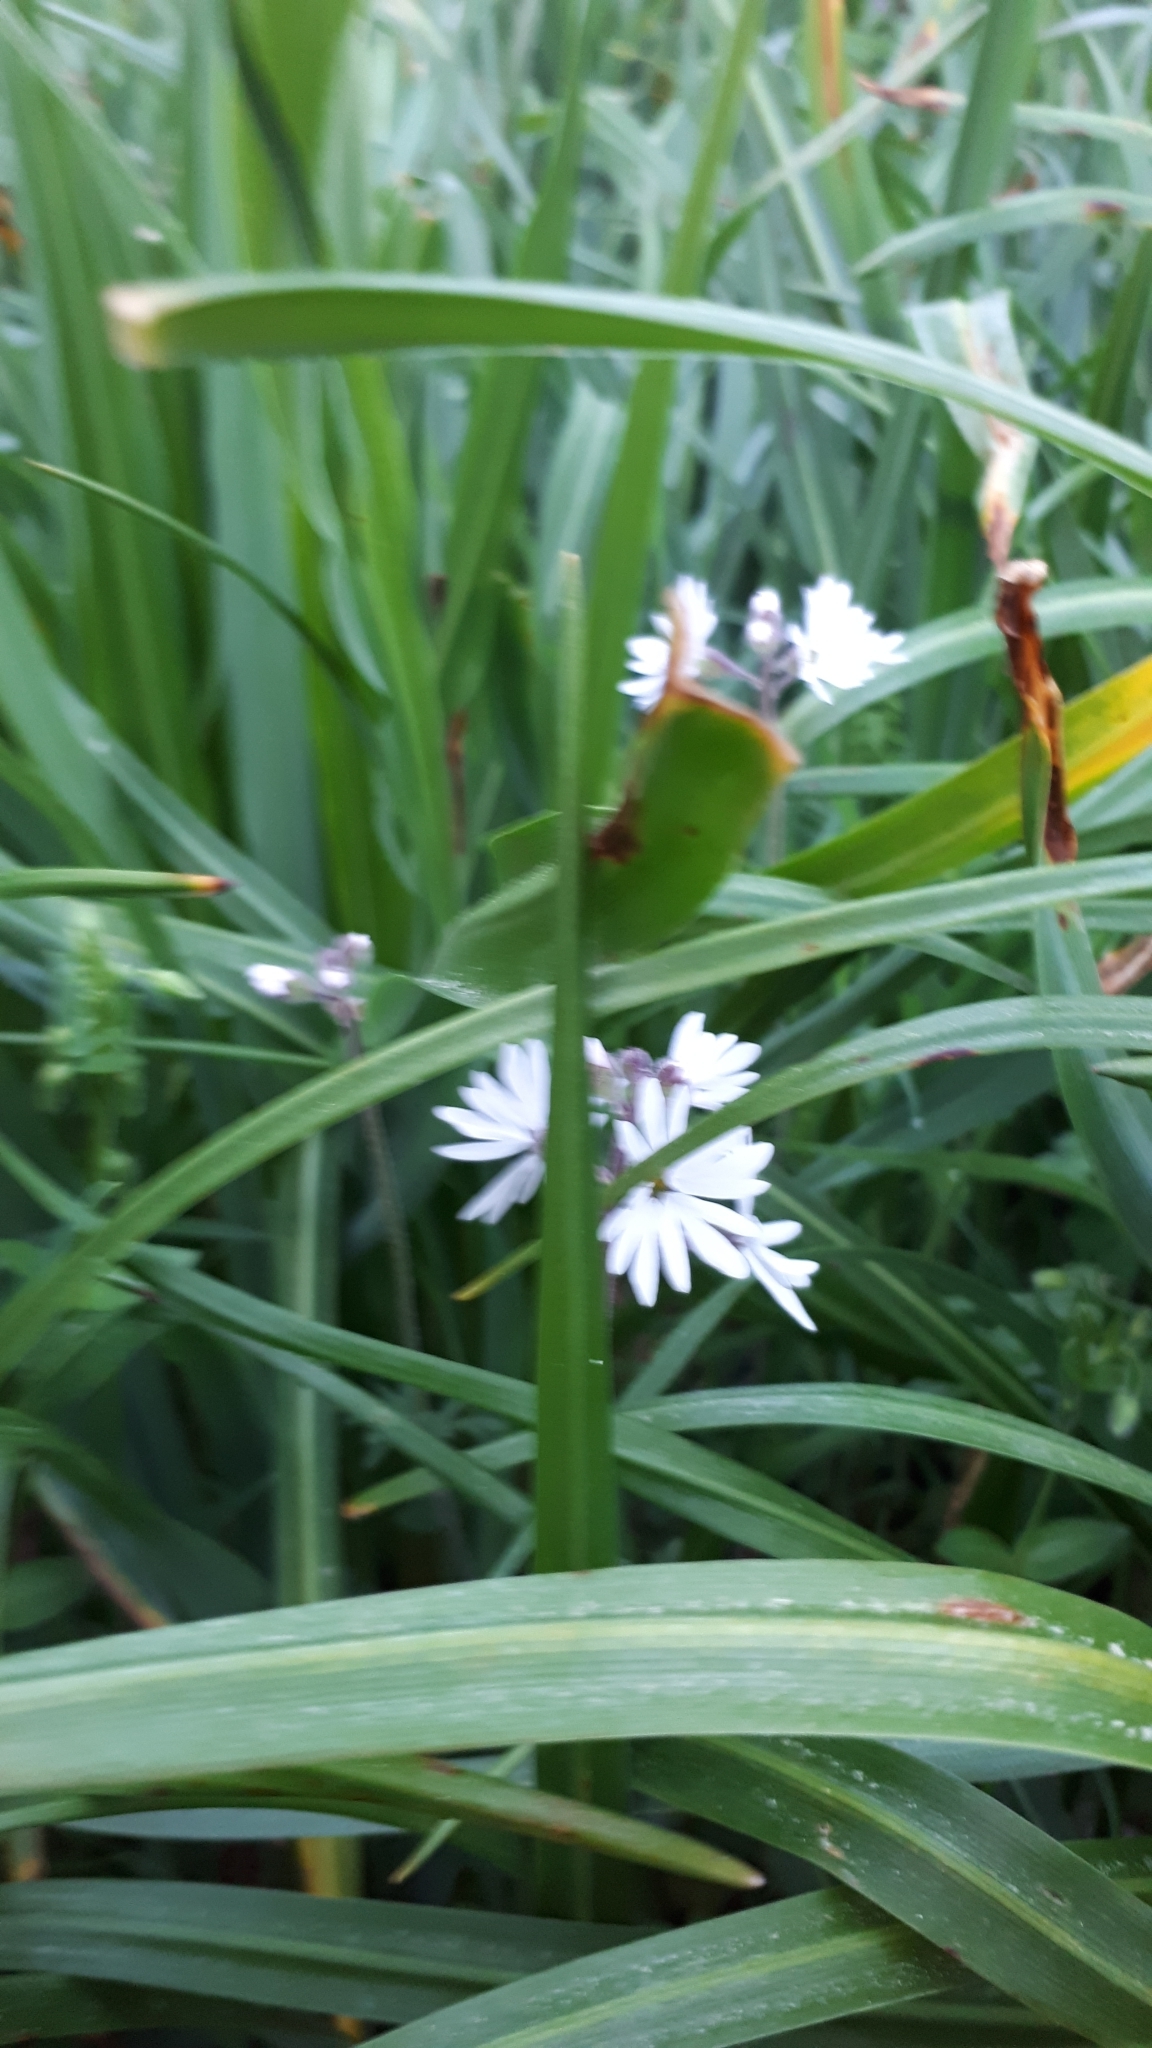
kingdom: Plantae
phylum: Tracheophyta
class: Magnoliopsida
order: Saxifragales
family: Saxifragaceae
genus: Lithophragma
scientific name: Lithophragma parviflorum
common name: Small-flowered fringe-cup
